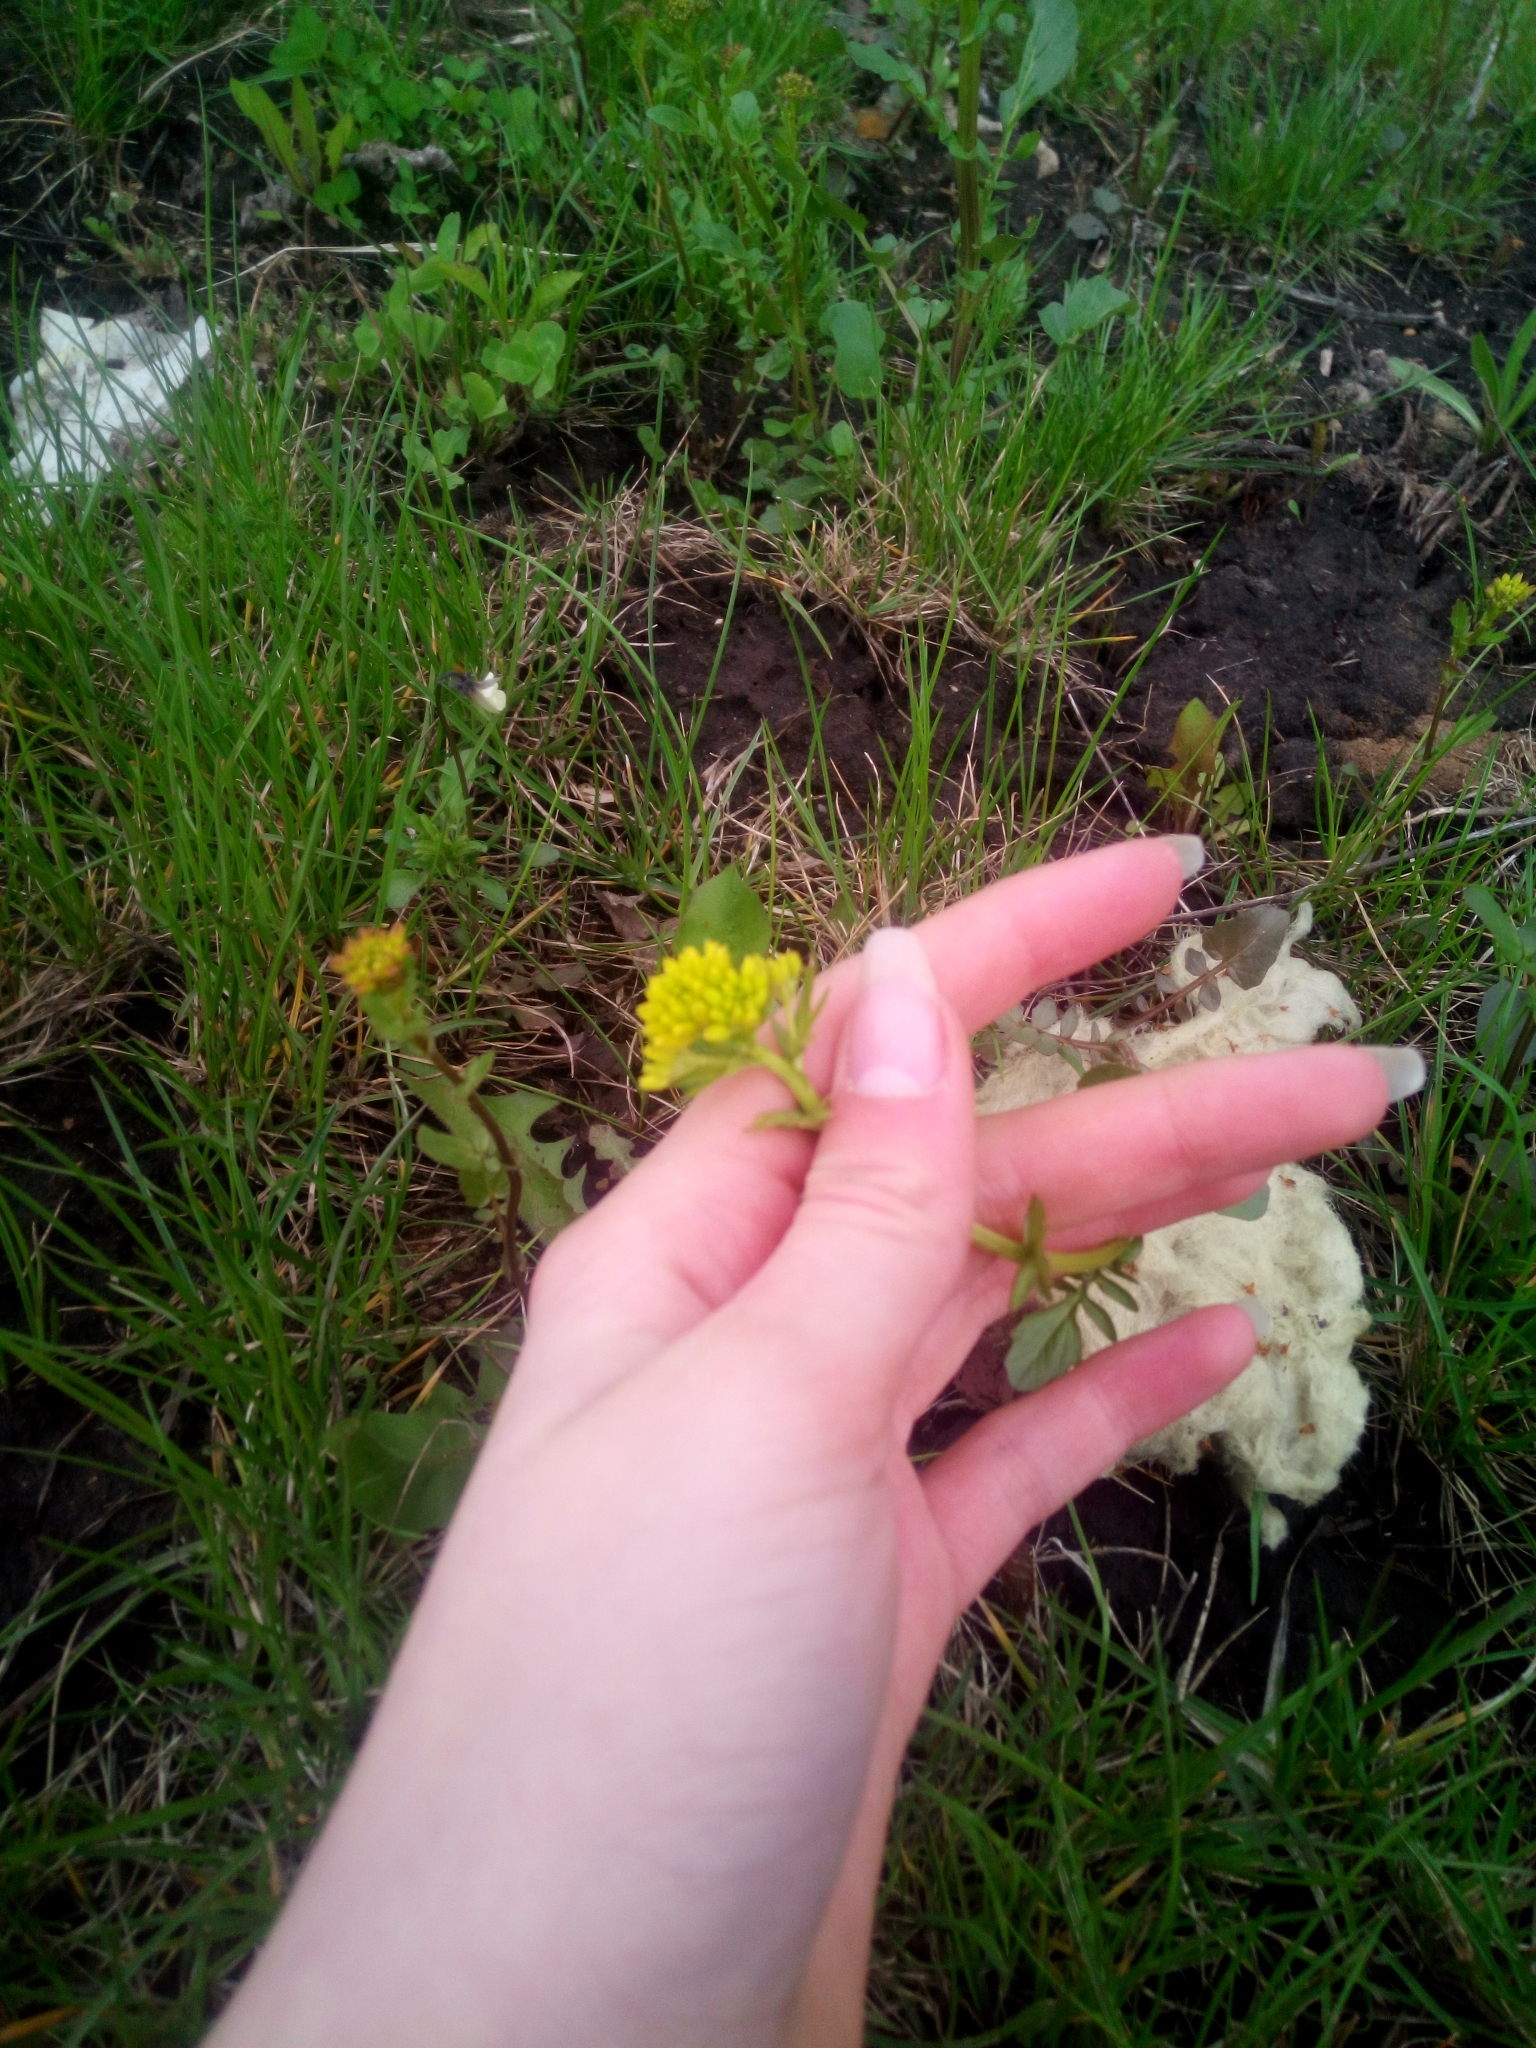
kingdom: Plantae
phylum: Tracheophyta
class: Magnoliopsida
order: Brassicales
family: Brassicaceae
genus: Barbarea
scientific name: Barbarea vulgaris
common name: Cressy-greens
